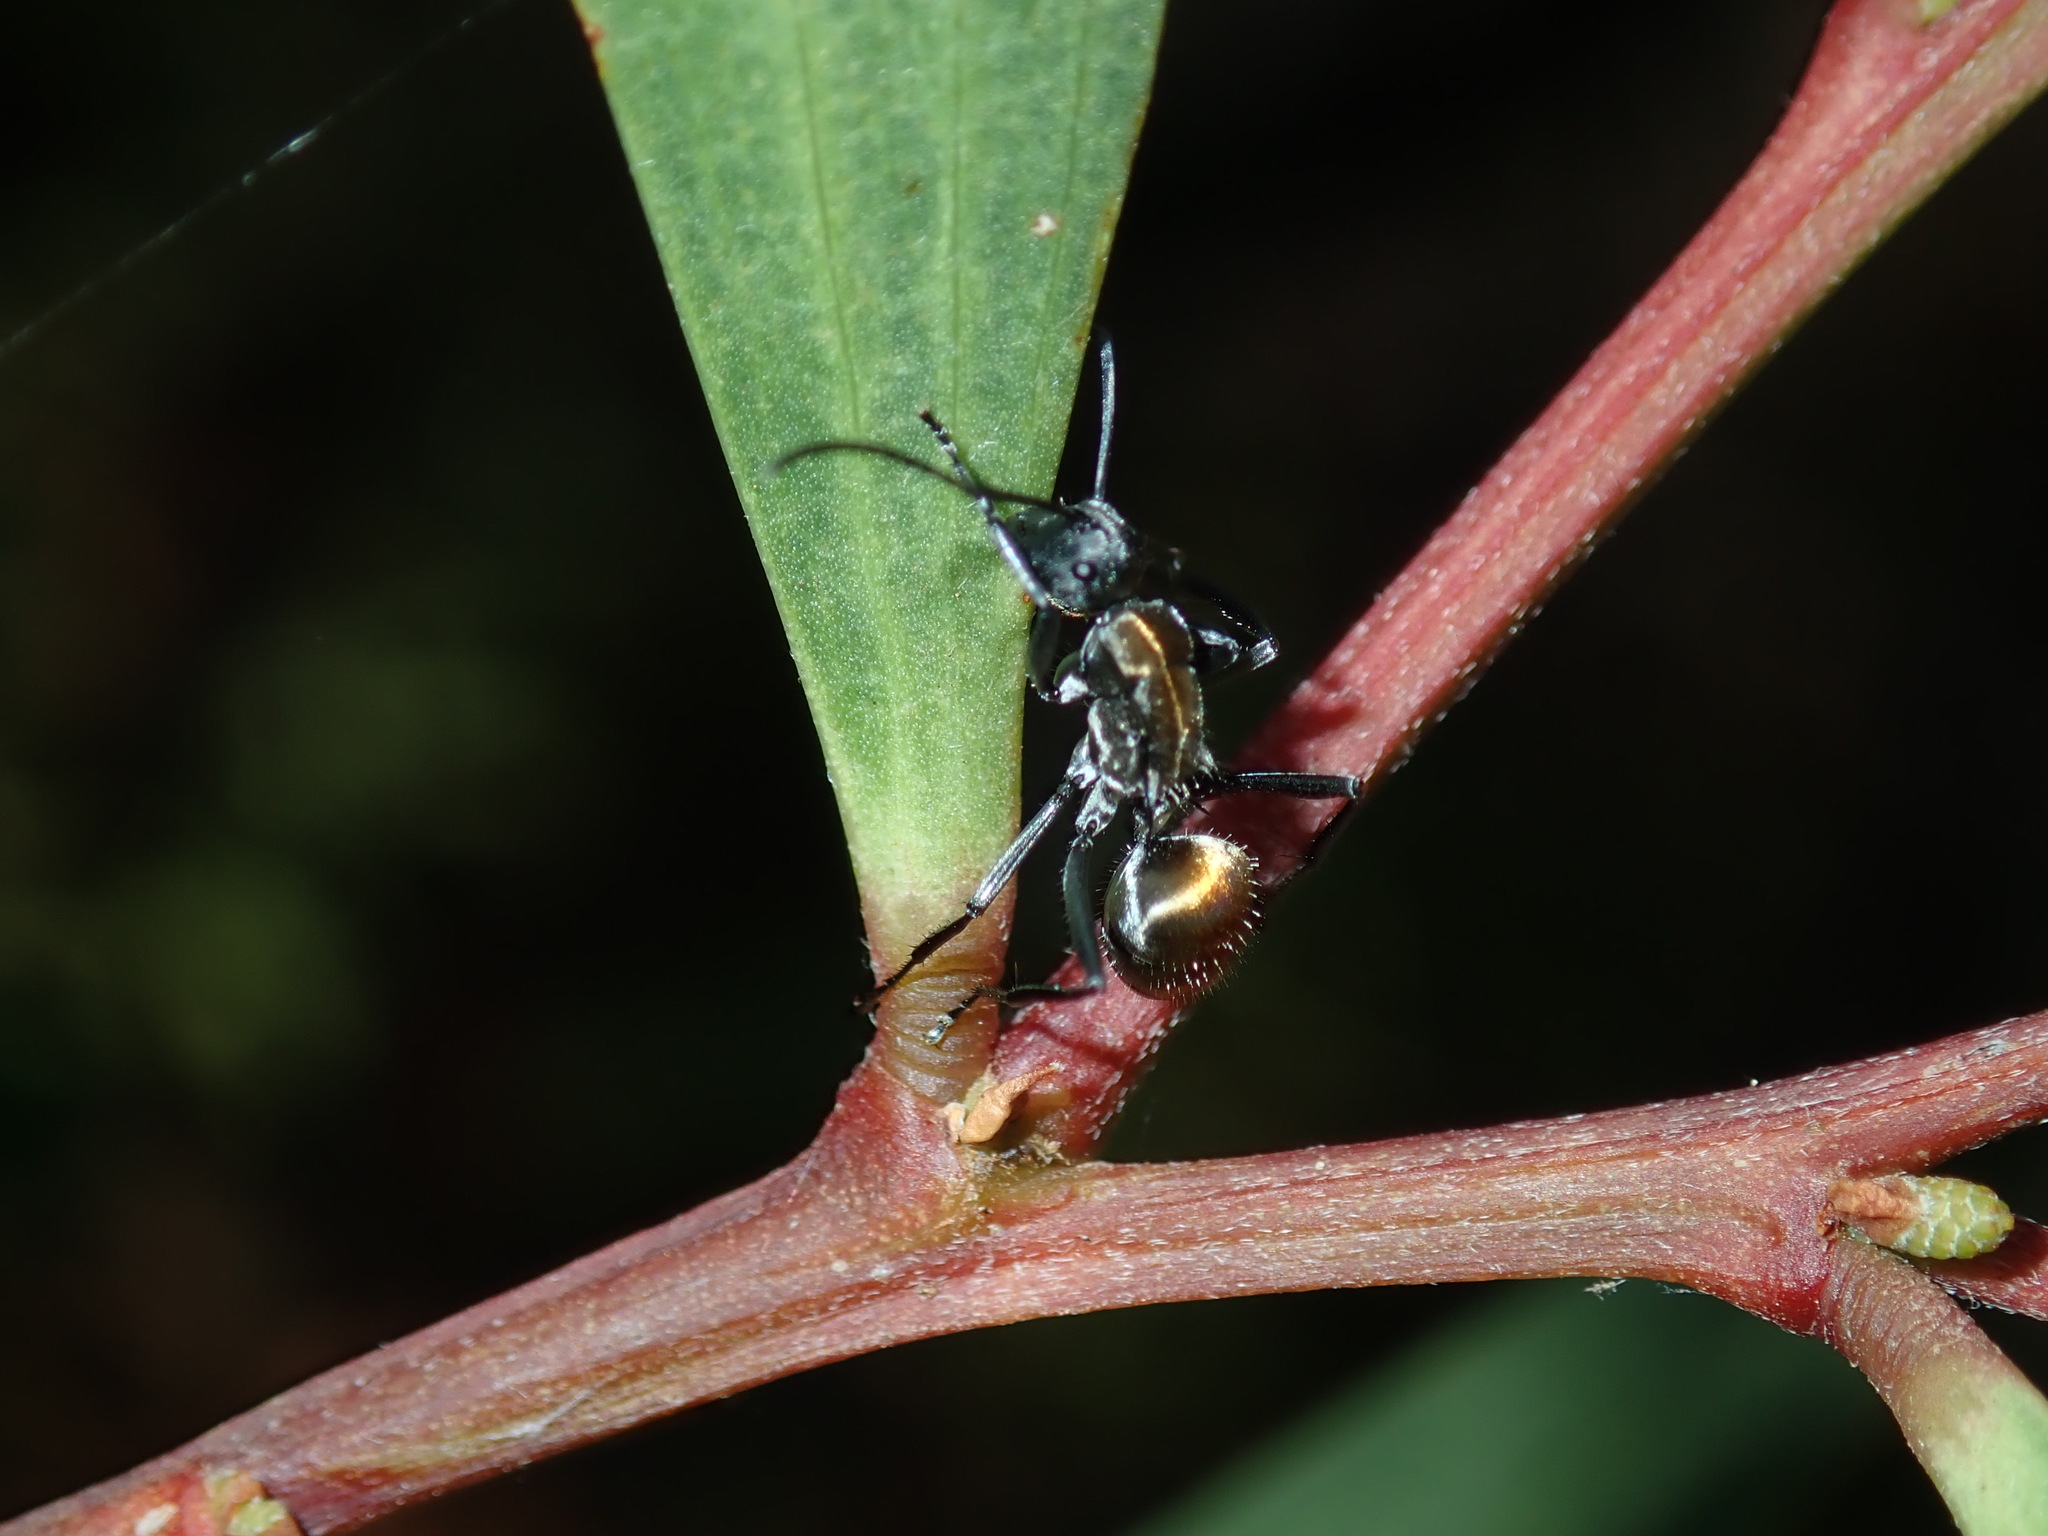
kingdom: Animalia
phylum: Arthropoda
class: Insecta
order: Hymenoptera
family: Formicidae
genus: Polyrhachis
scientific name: Polyrhachis ammon
